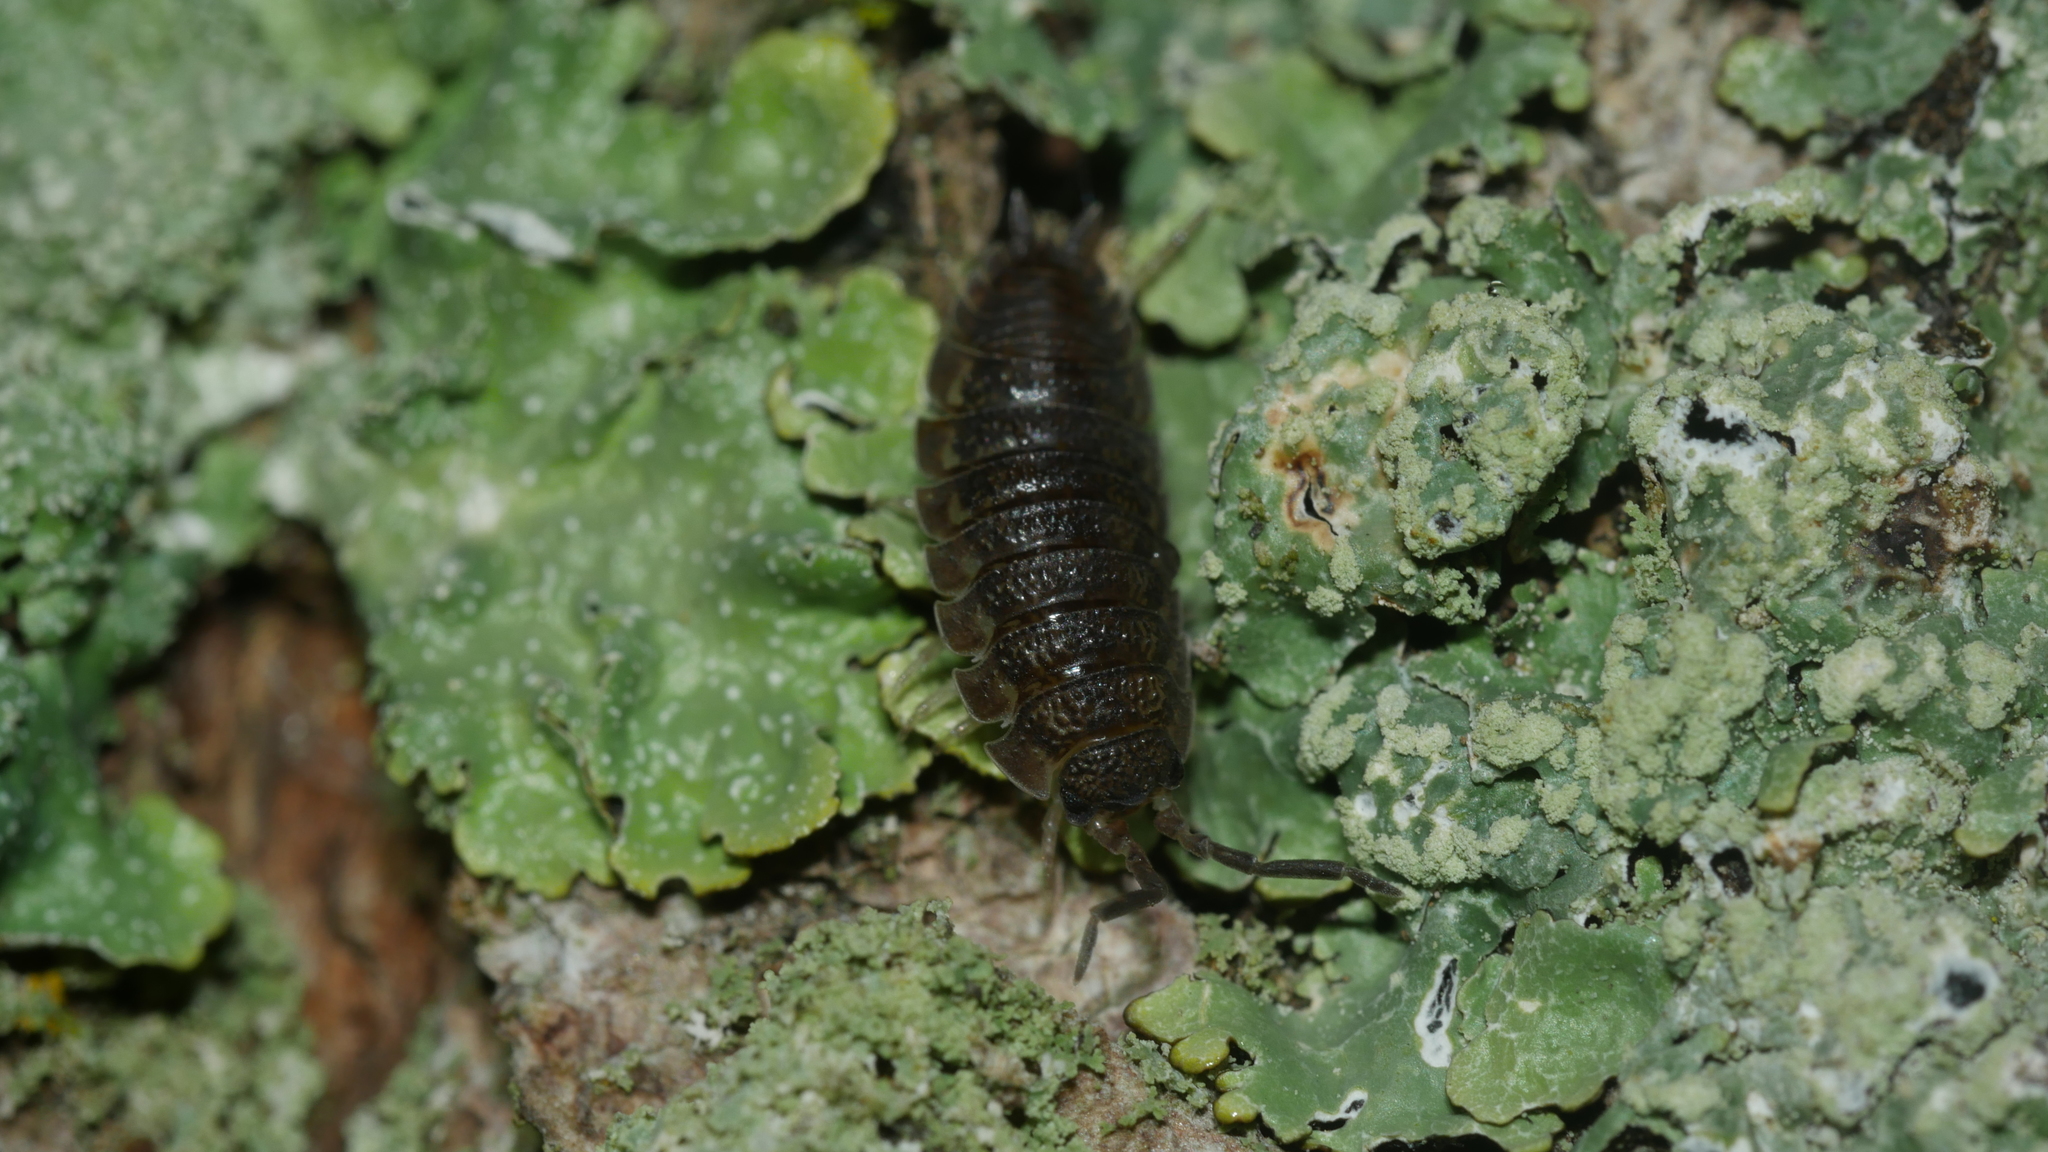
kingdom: Animalia
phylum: Arthropoda
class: Malacostraca
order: Isopoda
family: Porcellionidae
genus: Porcellio
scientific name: Porcellio scaber
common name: Common rough woodlouse
